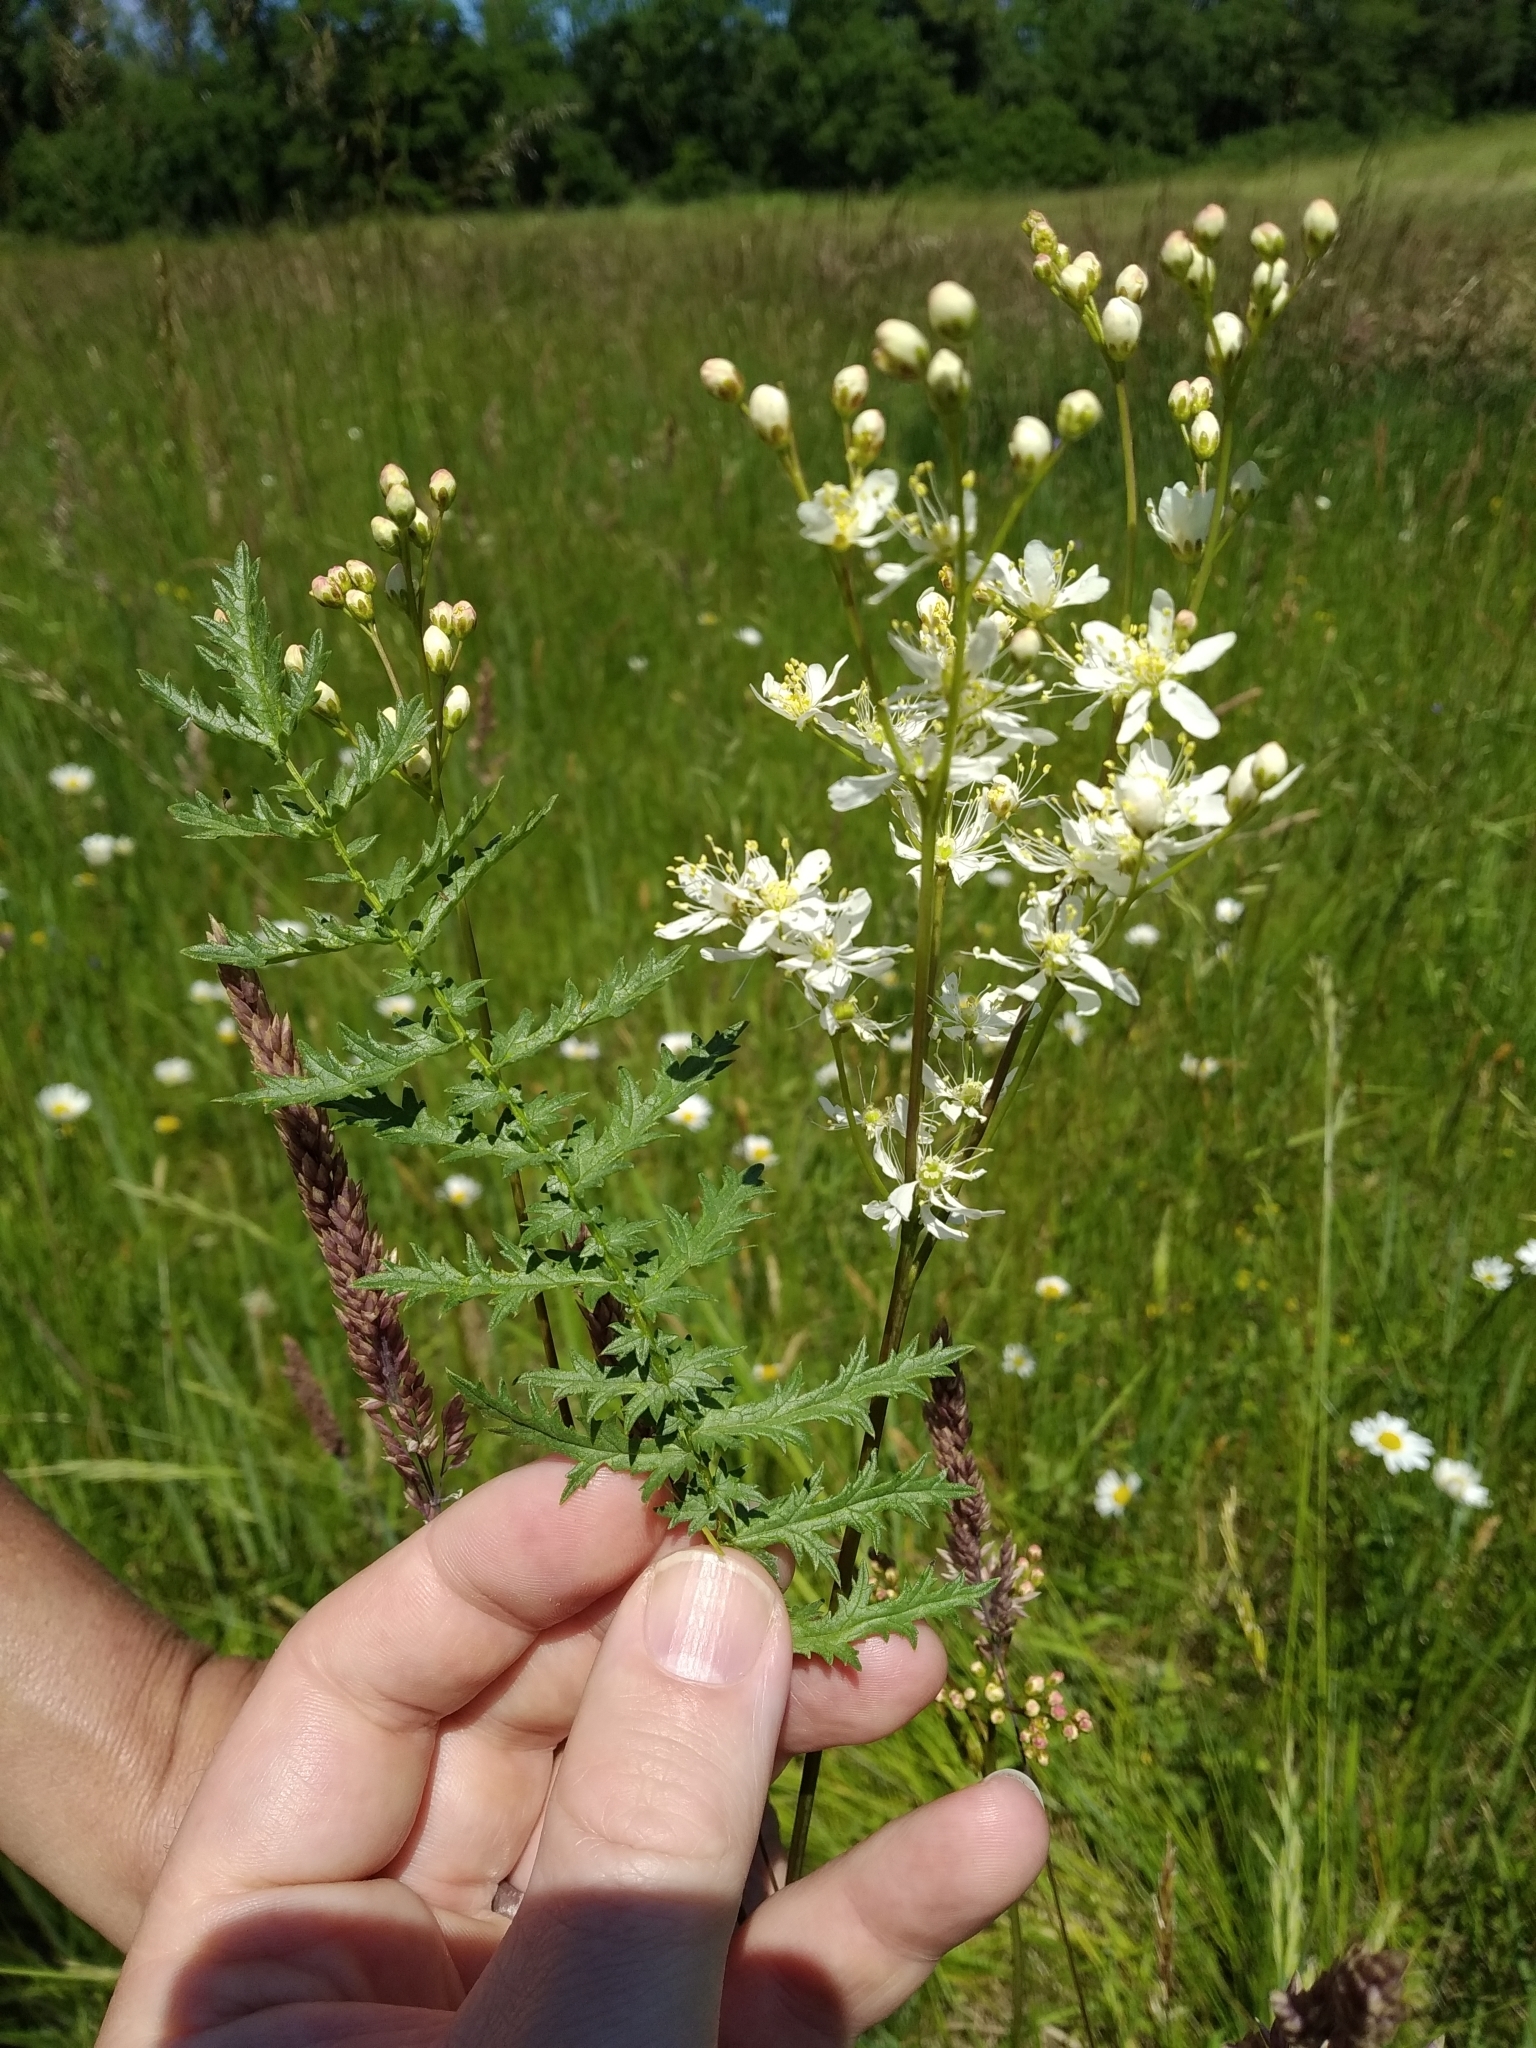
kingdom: Plantae
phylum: Tracheophyta
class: Magnoliopsida
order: Rosales
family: Rosaceae
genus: Filipendula
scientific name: Filipendula vulgaris
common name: Dropwort
